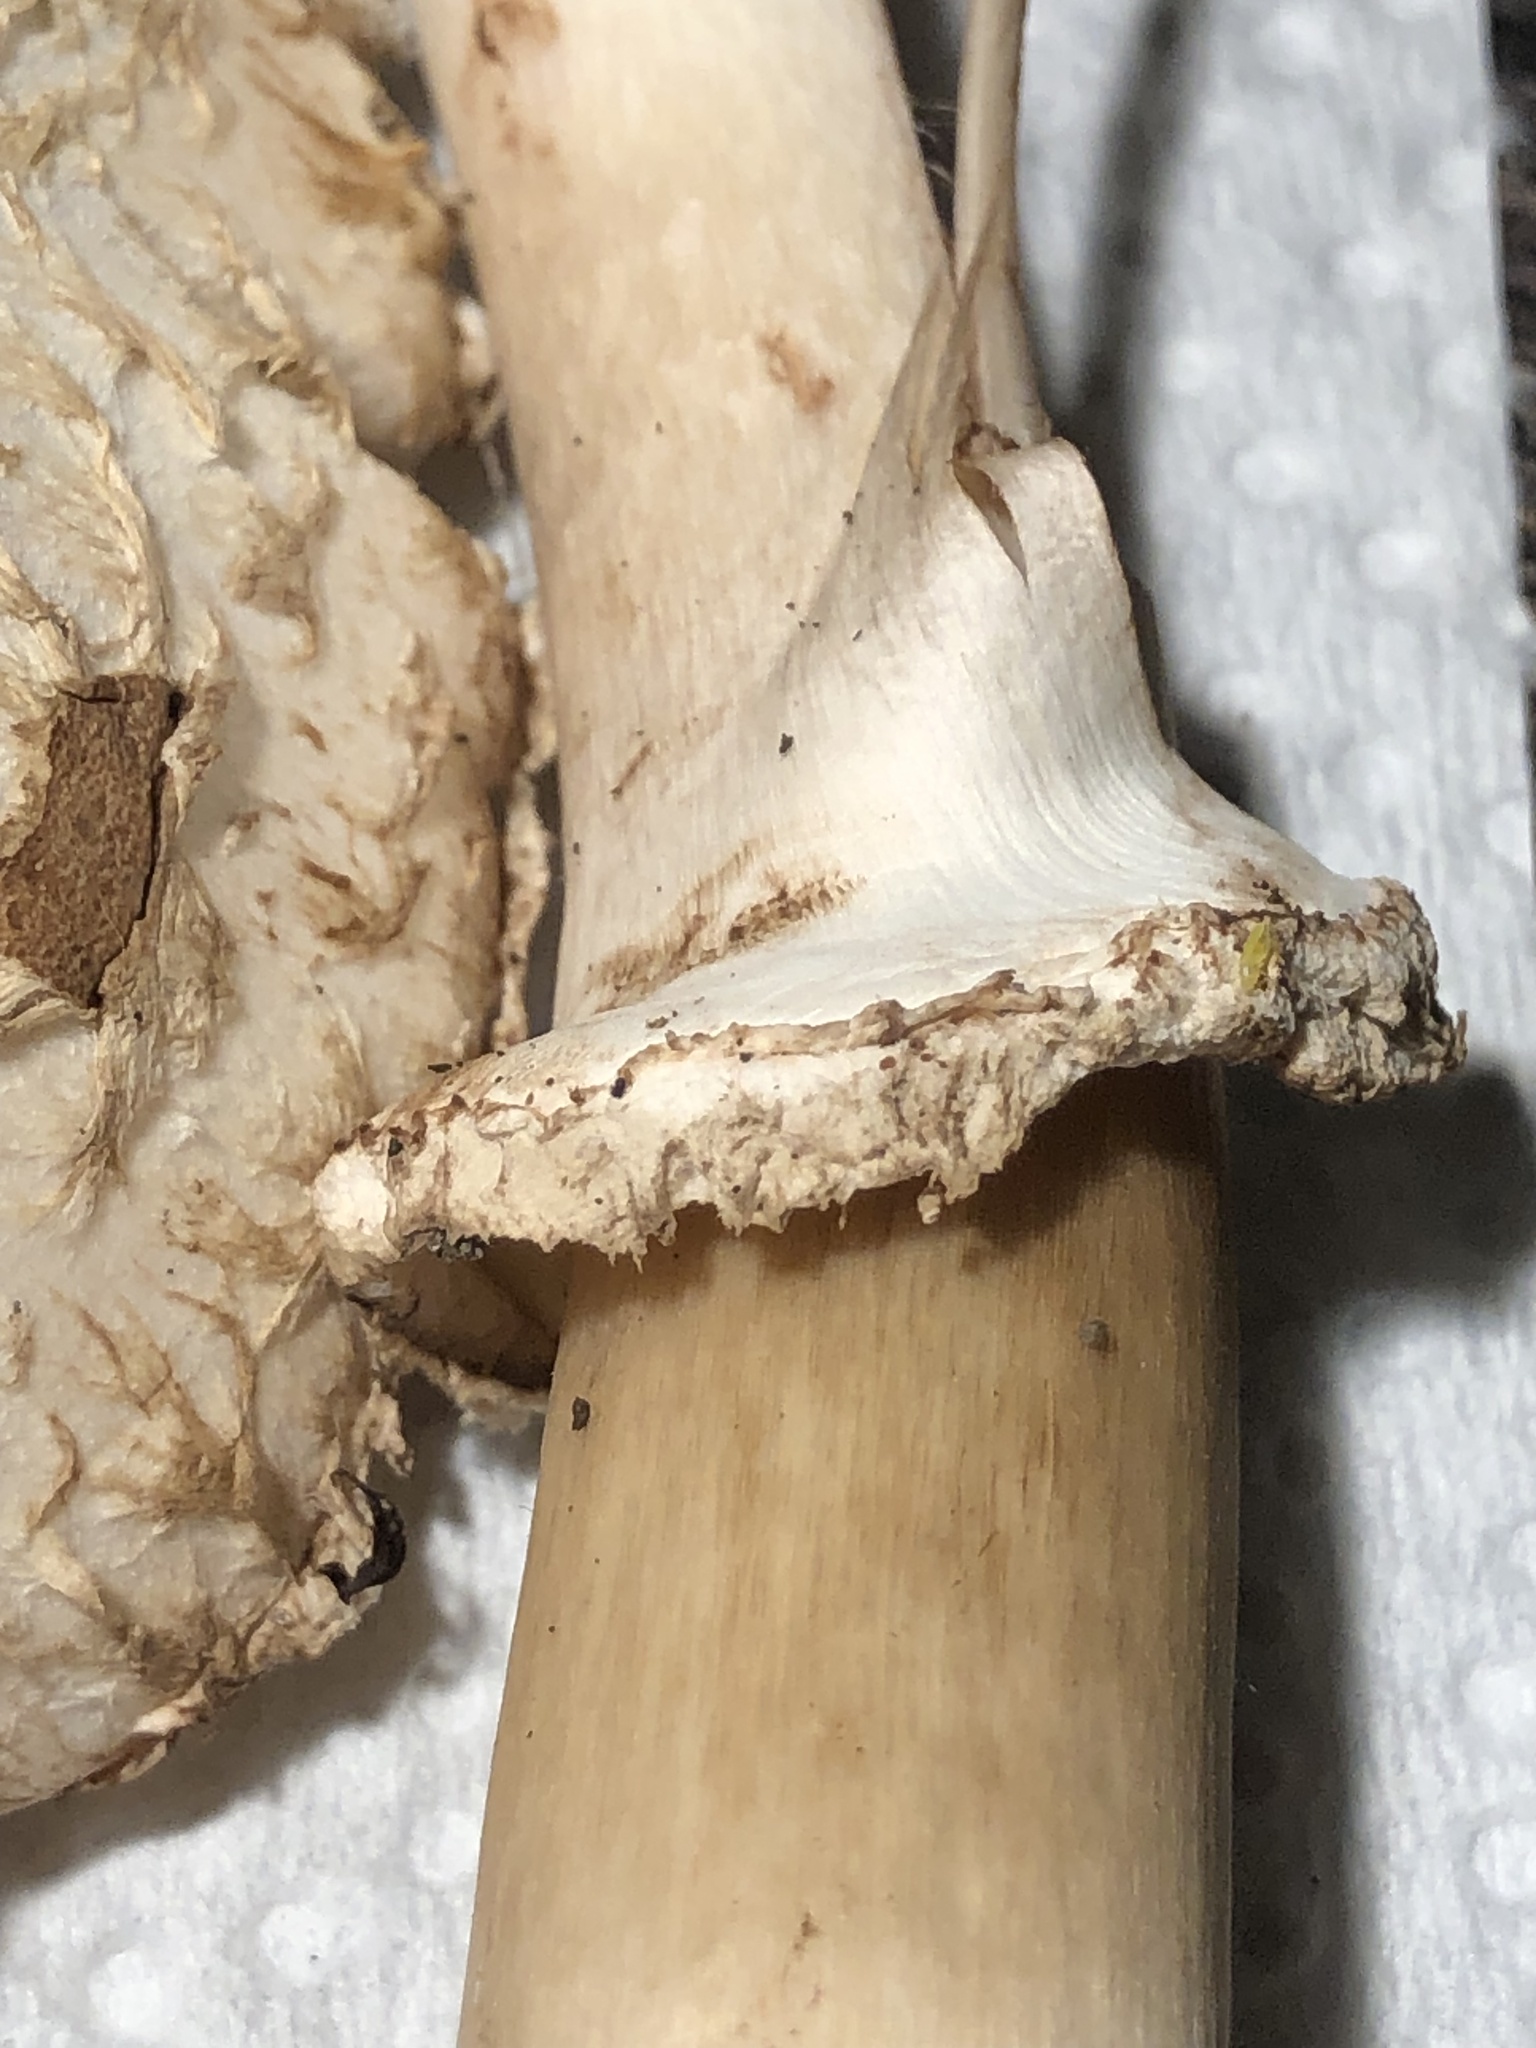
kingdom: Fungi
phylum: Basidiomycota
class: Agaricomycetes
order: Agaricales
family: Agaricaceae
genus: Chlorophyllum
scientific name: Chlorophyllum brunneum
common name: Brown parasol
